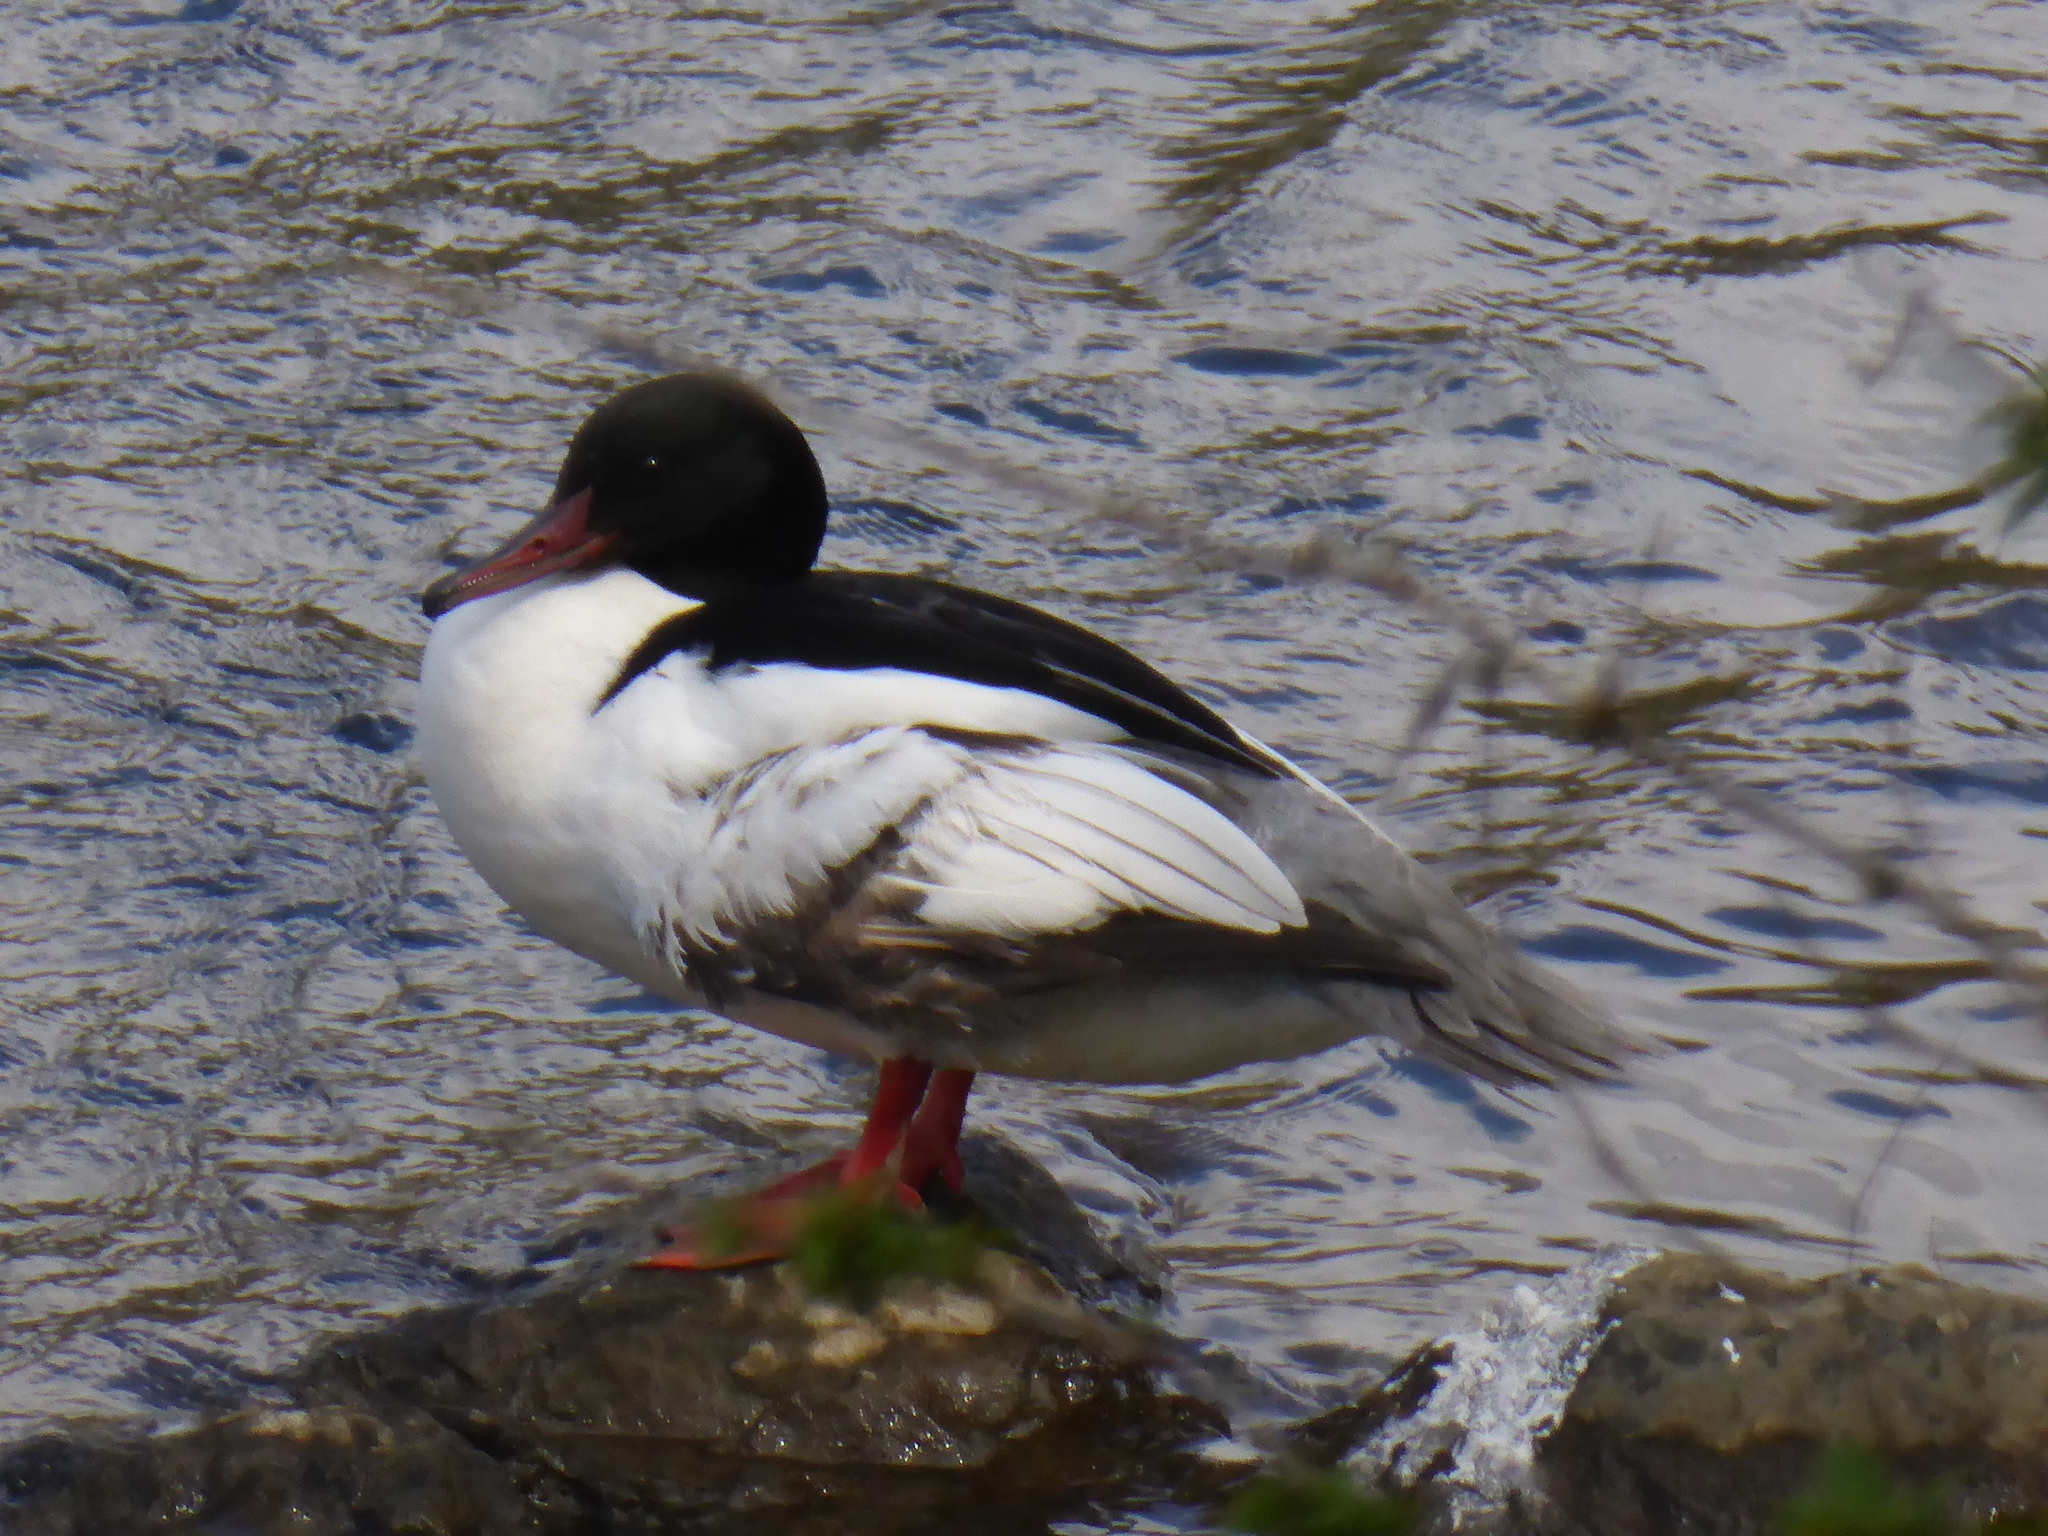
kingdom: Animalia
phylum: Chordata
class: Aves
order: Anseriformes
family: Anatidae
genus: Mergus
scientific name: Mergus merganser
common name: Common merganser
